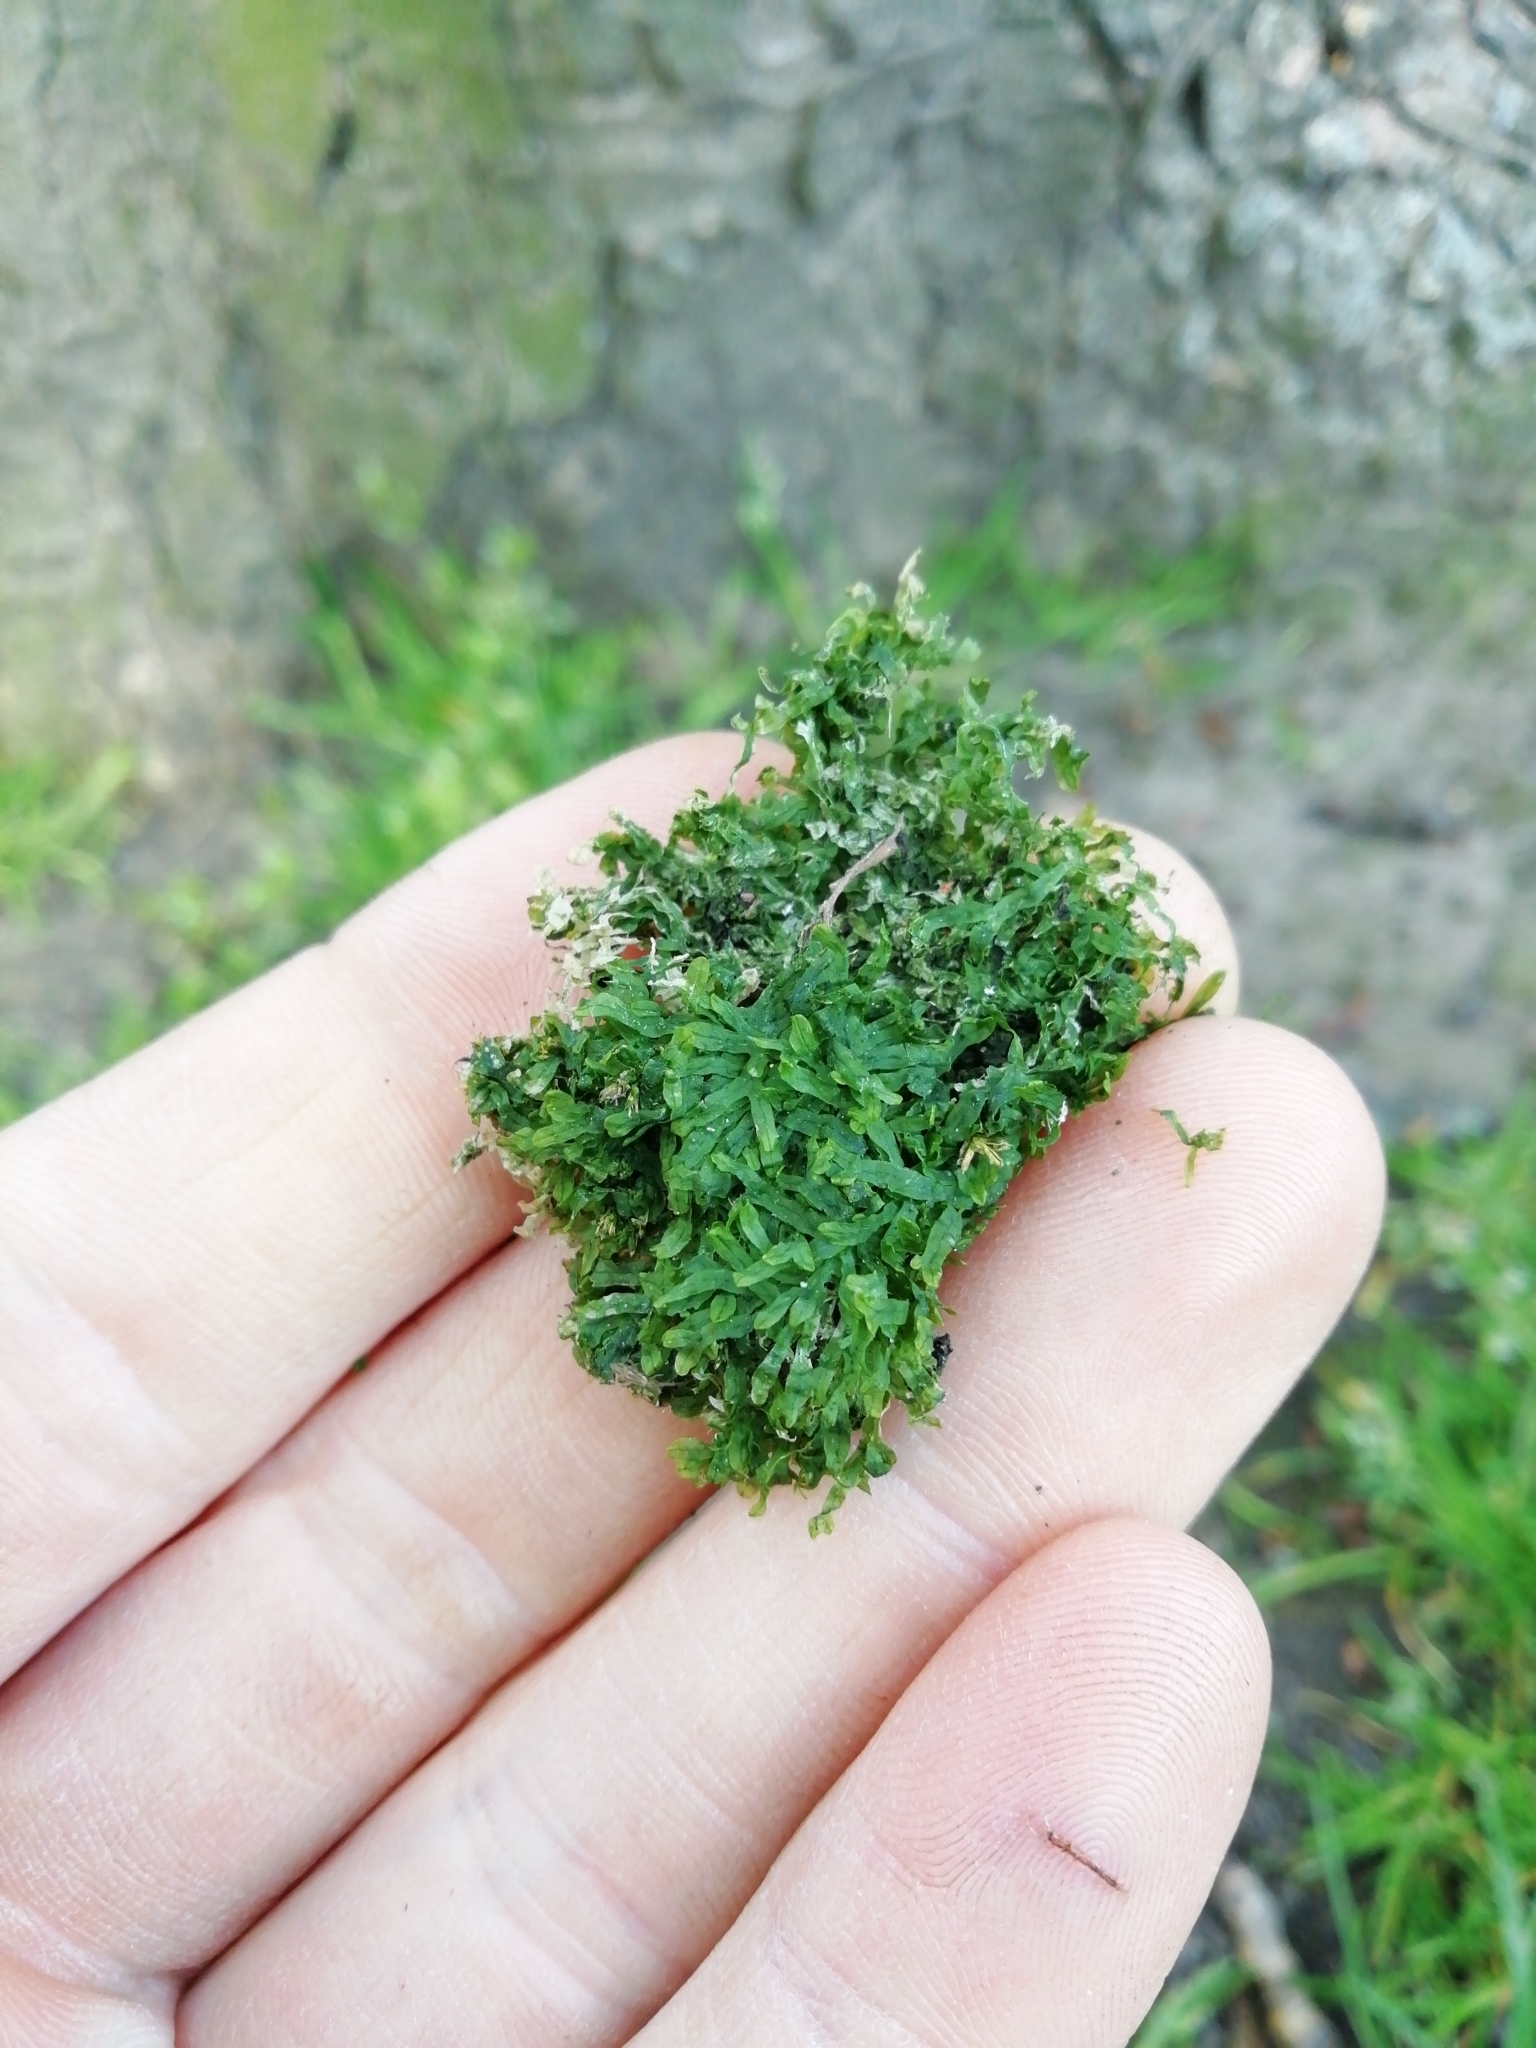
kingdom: Plantae
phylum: Marchantiophyta
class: Jungermanniopsida
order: Metzgeriales
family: Metzgeriaceae
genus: Metzgeria
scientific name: Metzgeria furcata
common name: Forked veilwort
